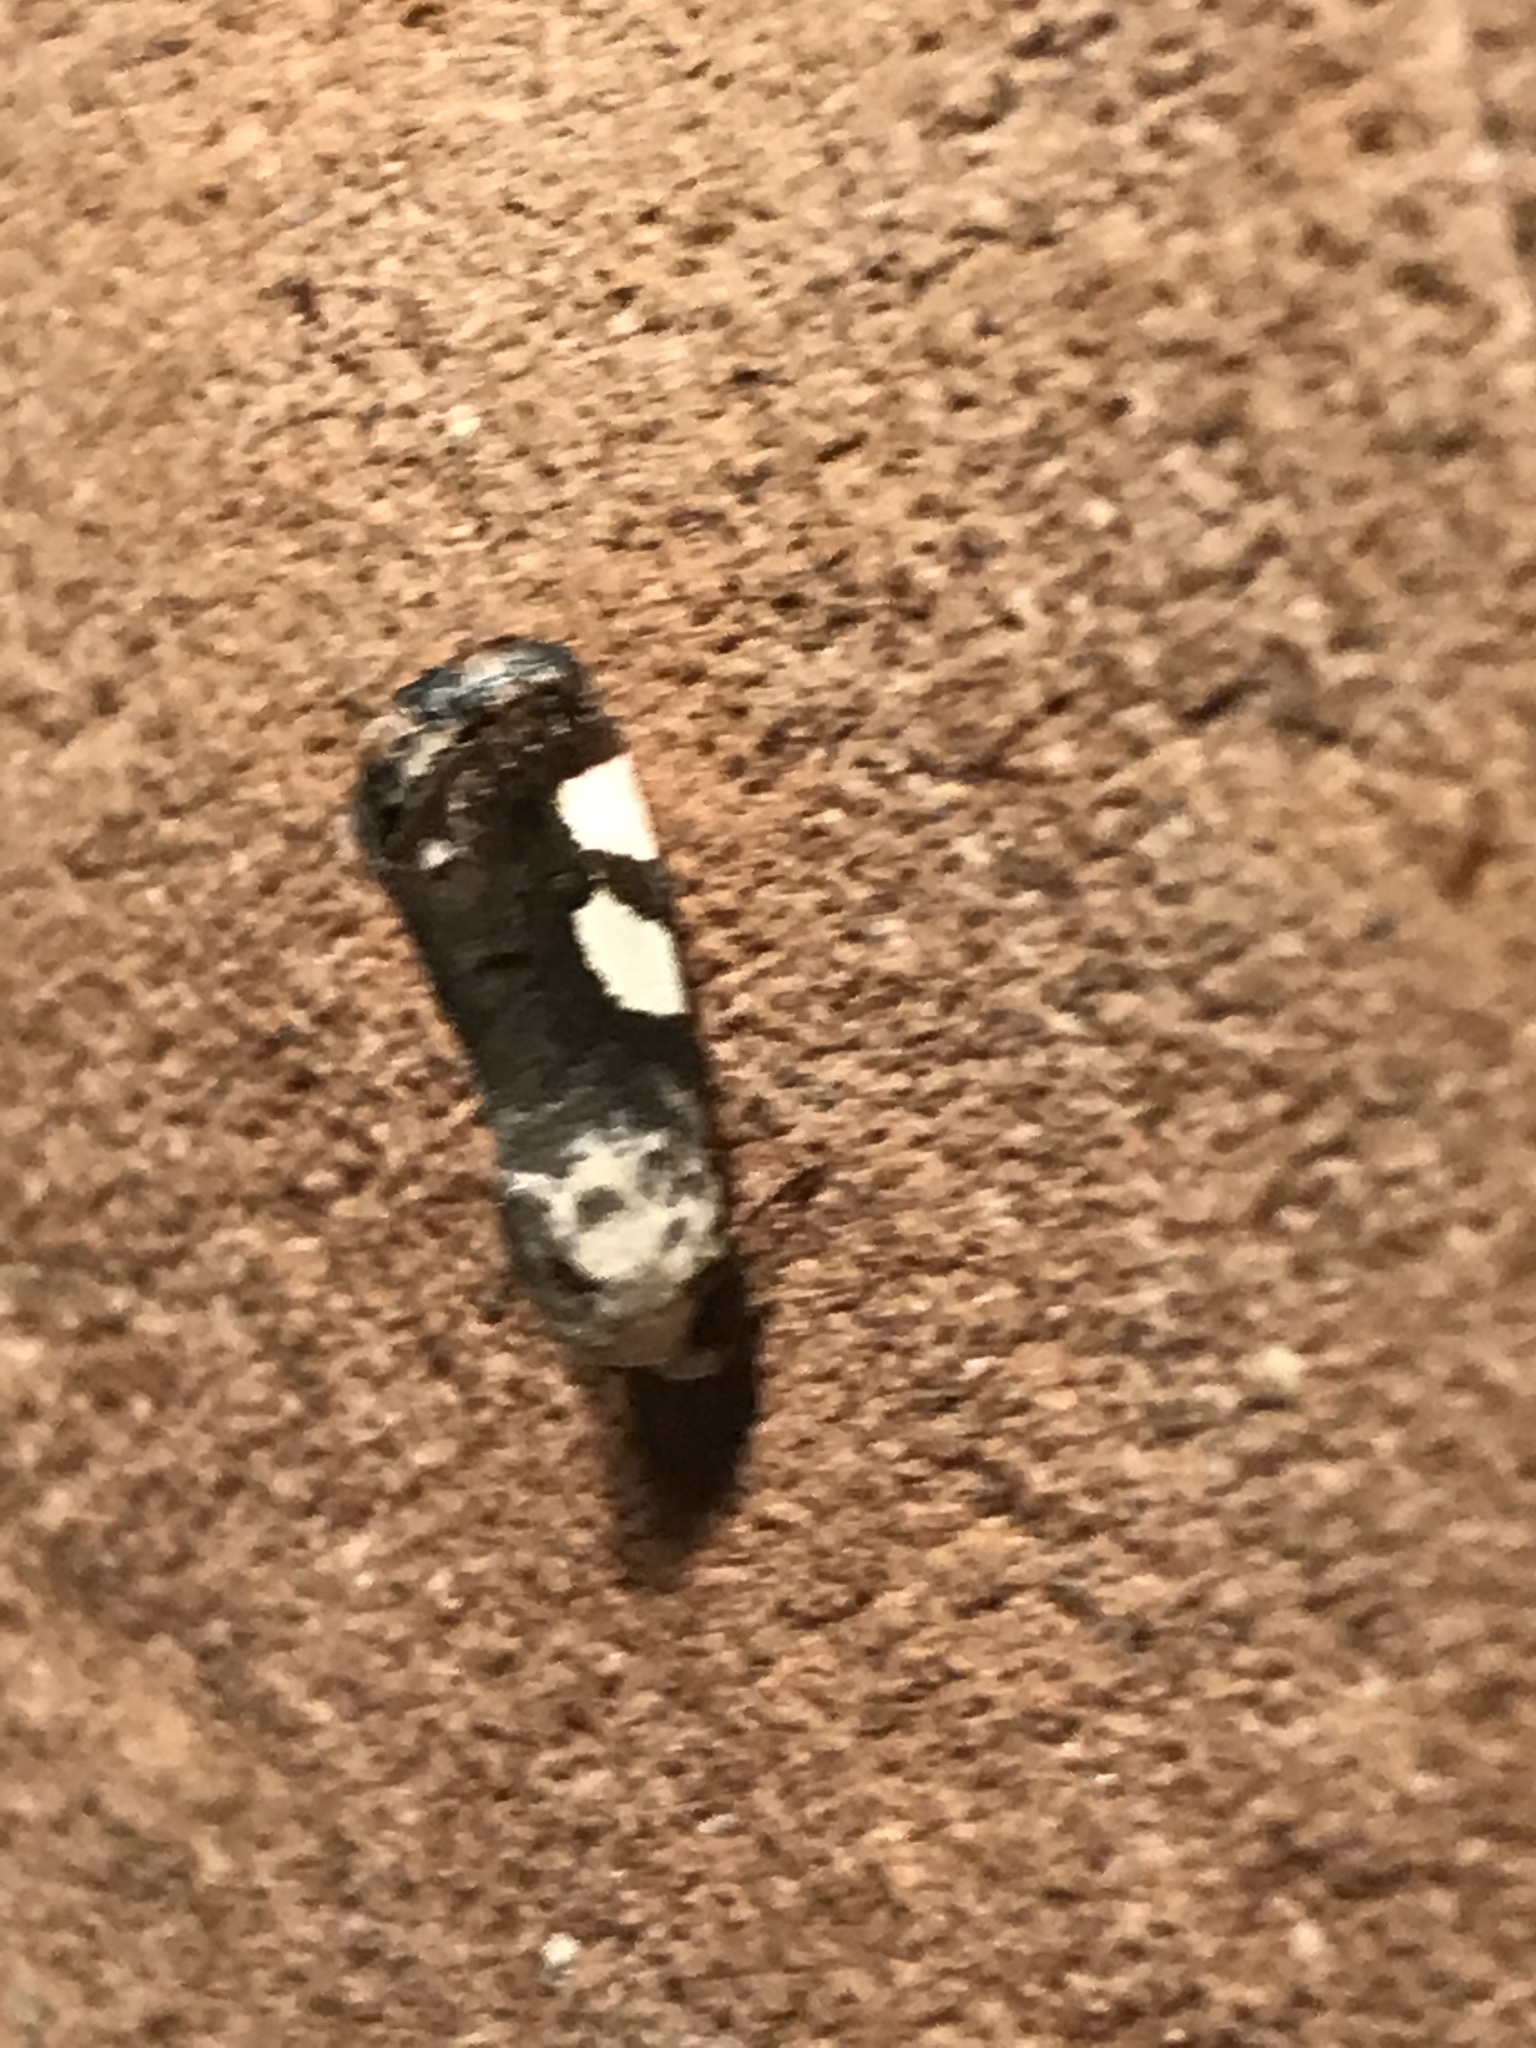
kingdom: Animalia
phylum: Arthropoda
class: Insecta
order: Lepidoptera
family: Noctuidae
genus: Acontia
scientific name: Acontia quadriplaga
